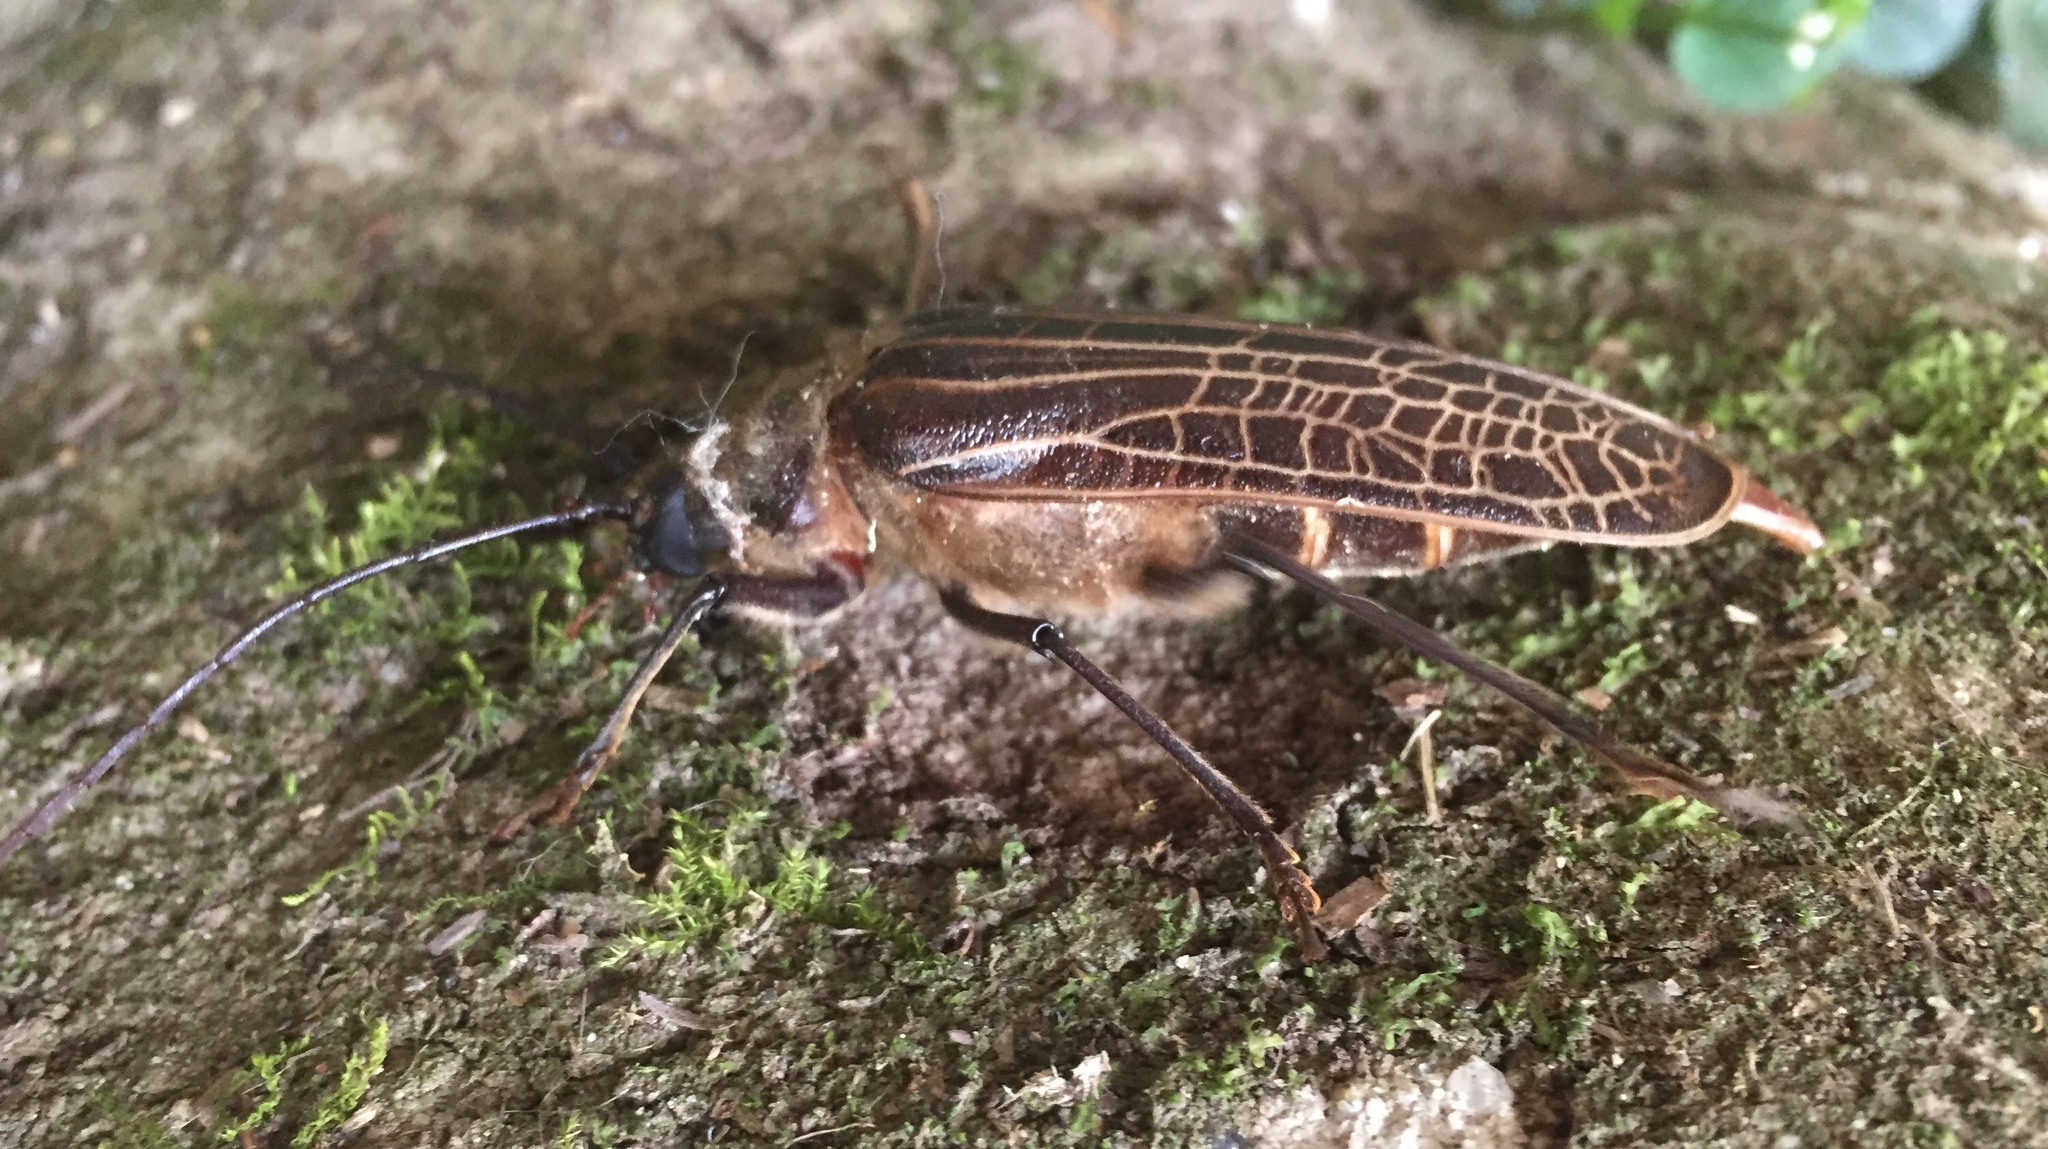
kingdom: Animalia
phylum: Arthropoda
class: Insecta
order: Coleoptera
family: Cerambycidae
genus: Prionoplus
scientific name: Prionoplus reticularis
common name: Huhu beetle
